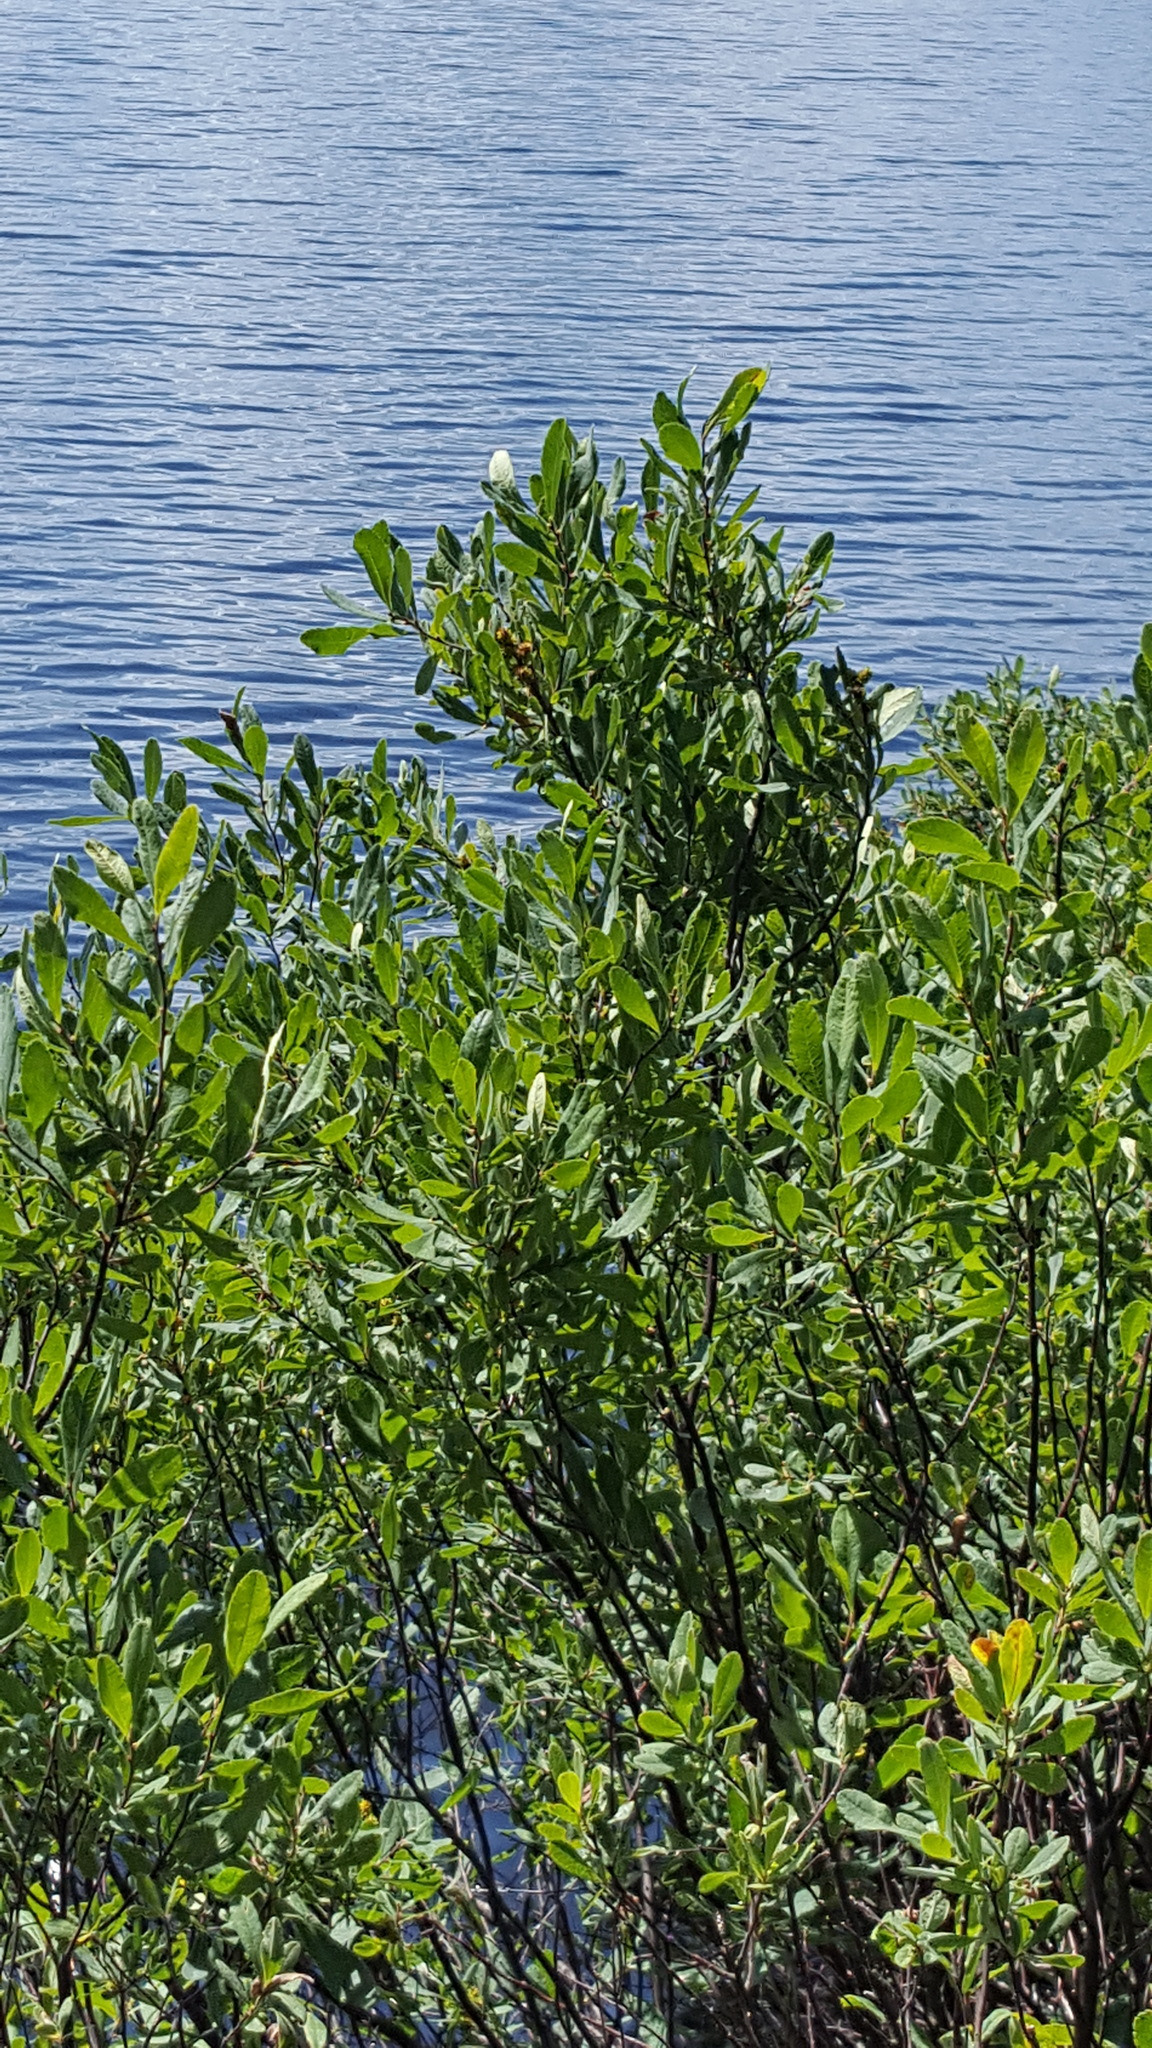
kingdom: Plantae
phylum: Tracheophyta
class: Magnoliopsida
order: Fagales
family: Myricaceae
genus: Myrica
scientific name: Myrica gale
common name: Sweet gale
